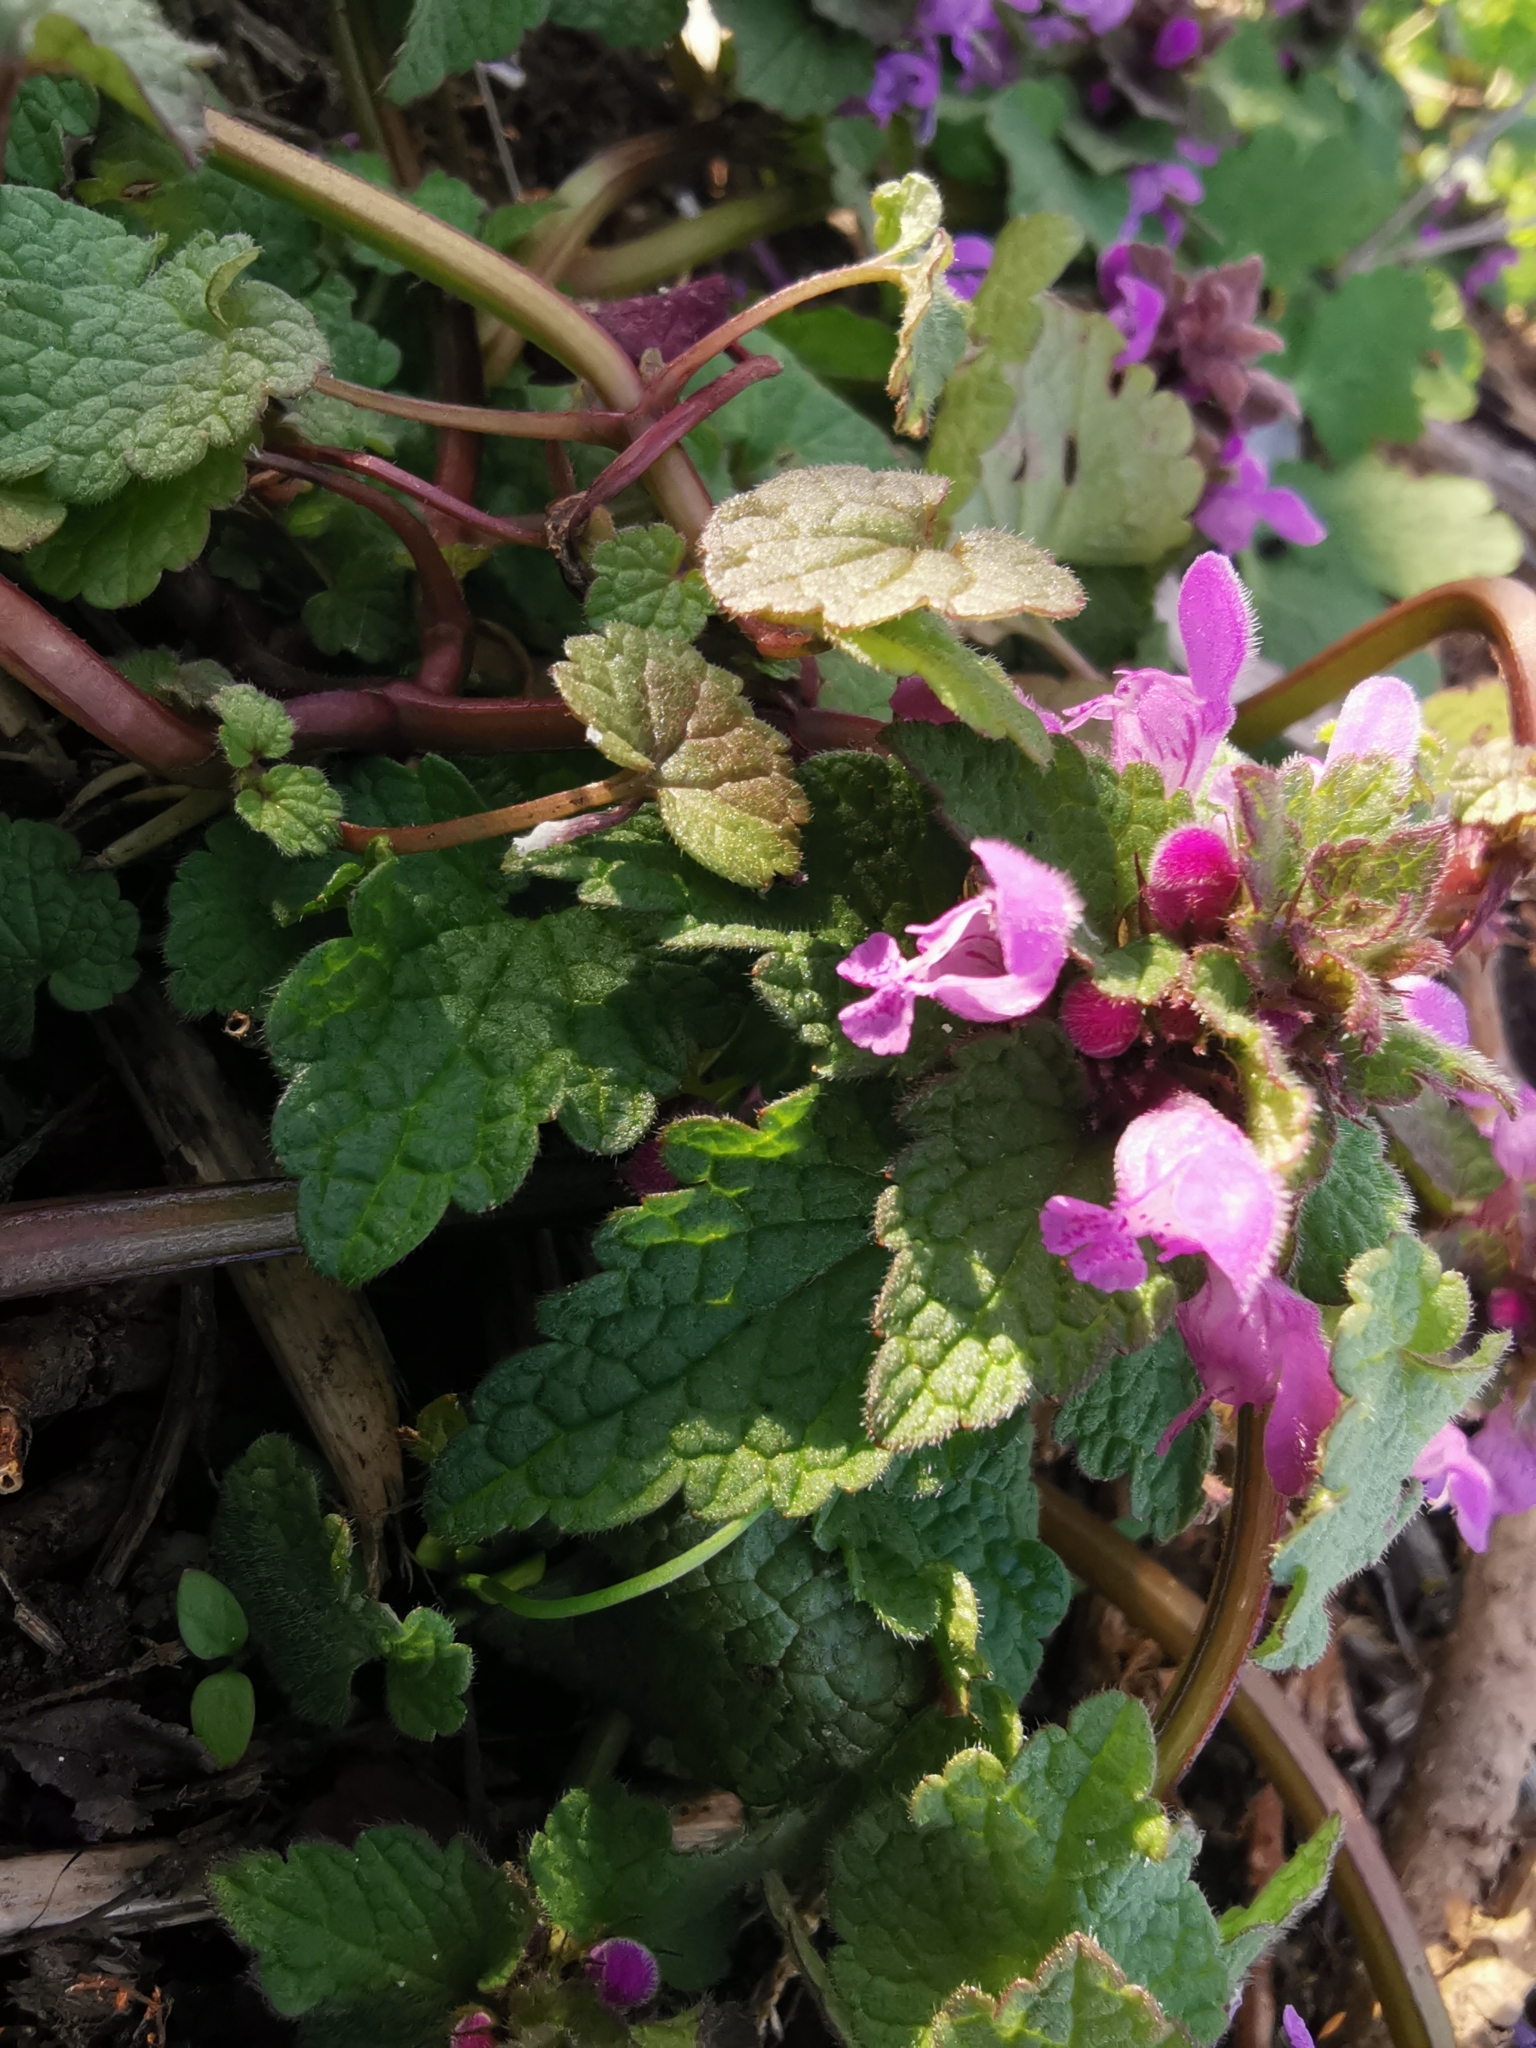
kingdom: Plantae
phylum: Tracheophyta
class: Magnoliopsida
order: Lamiales
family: Lamiaceae
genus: Lamium
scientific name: Lamium purpureum
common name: Red dead-nettle
